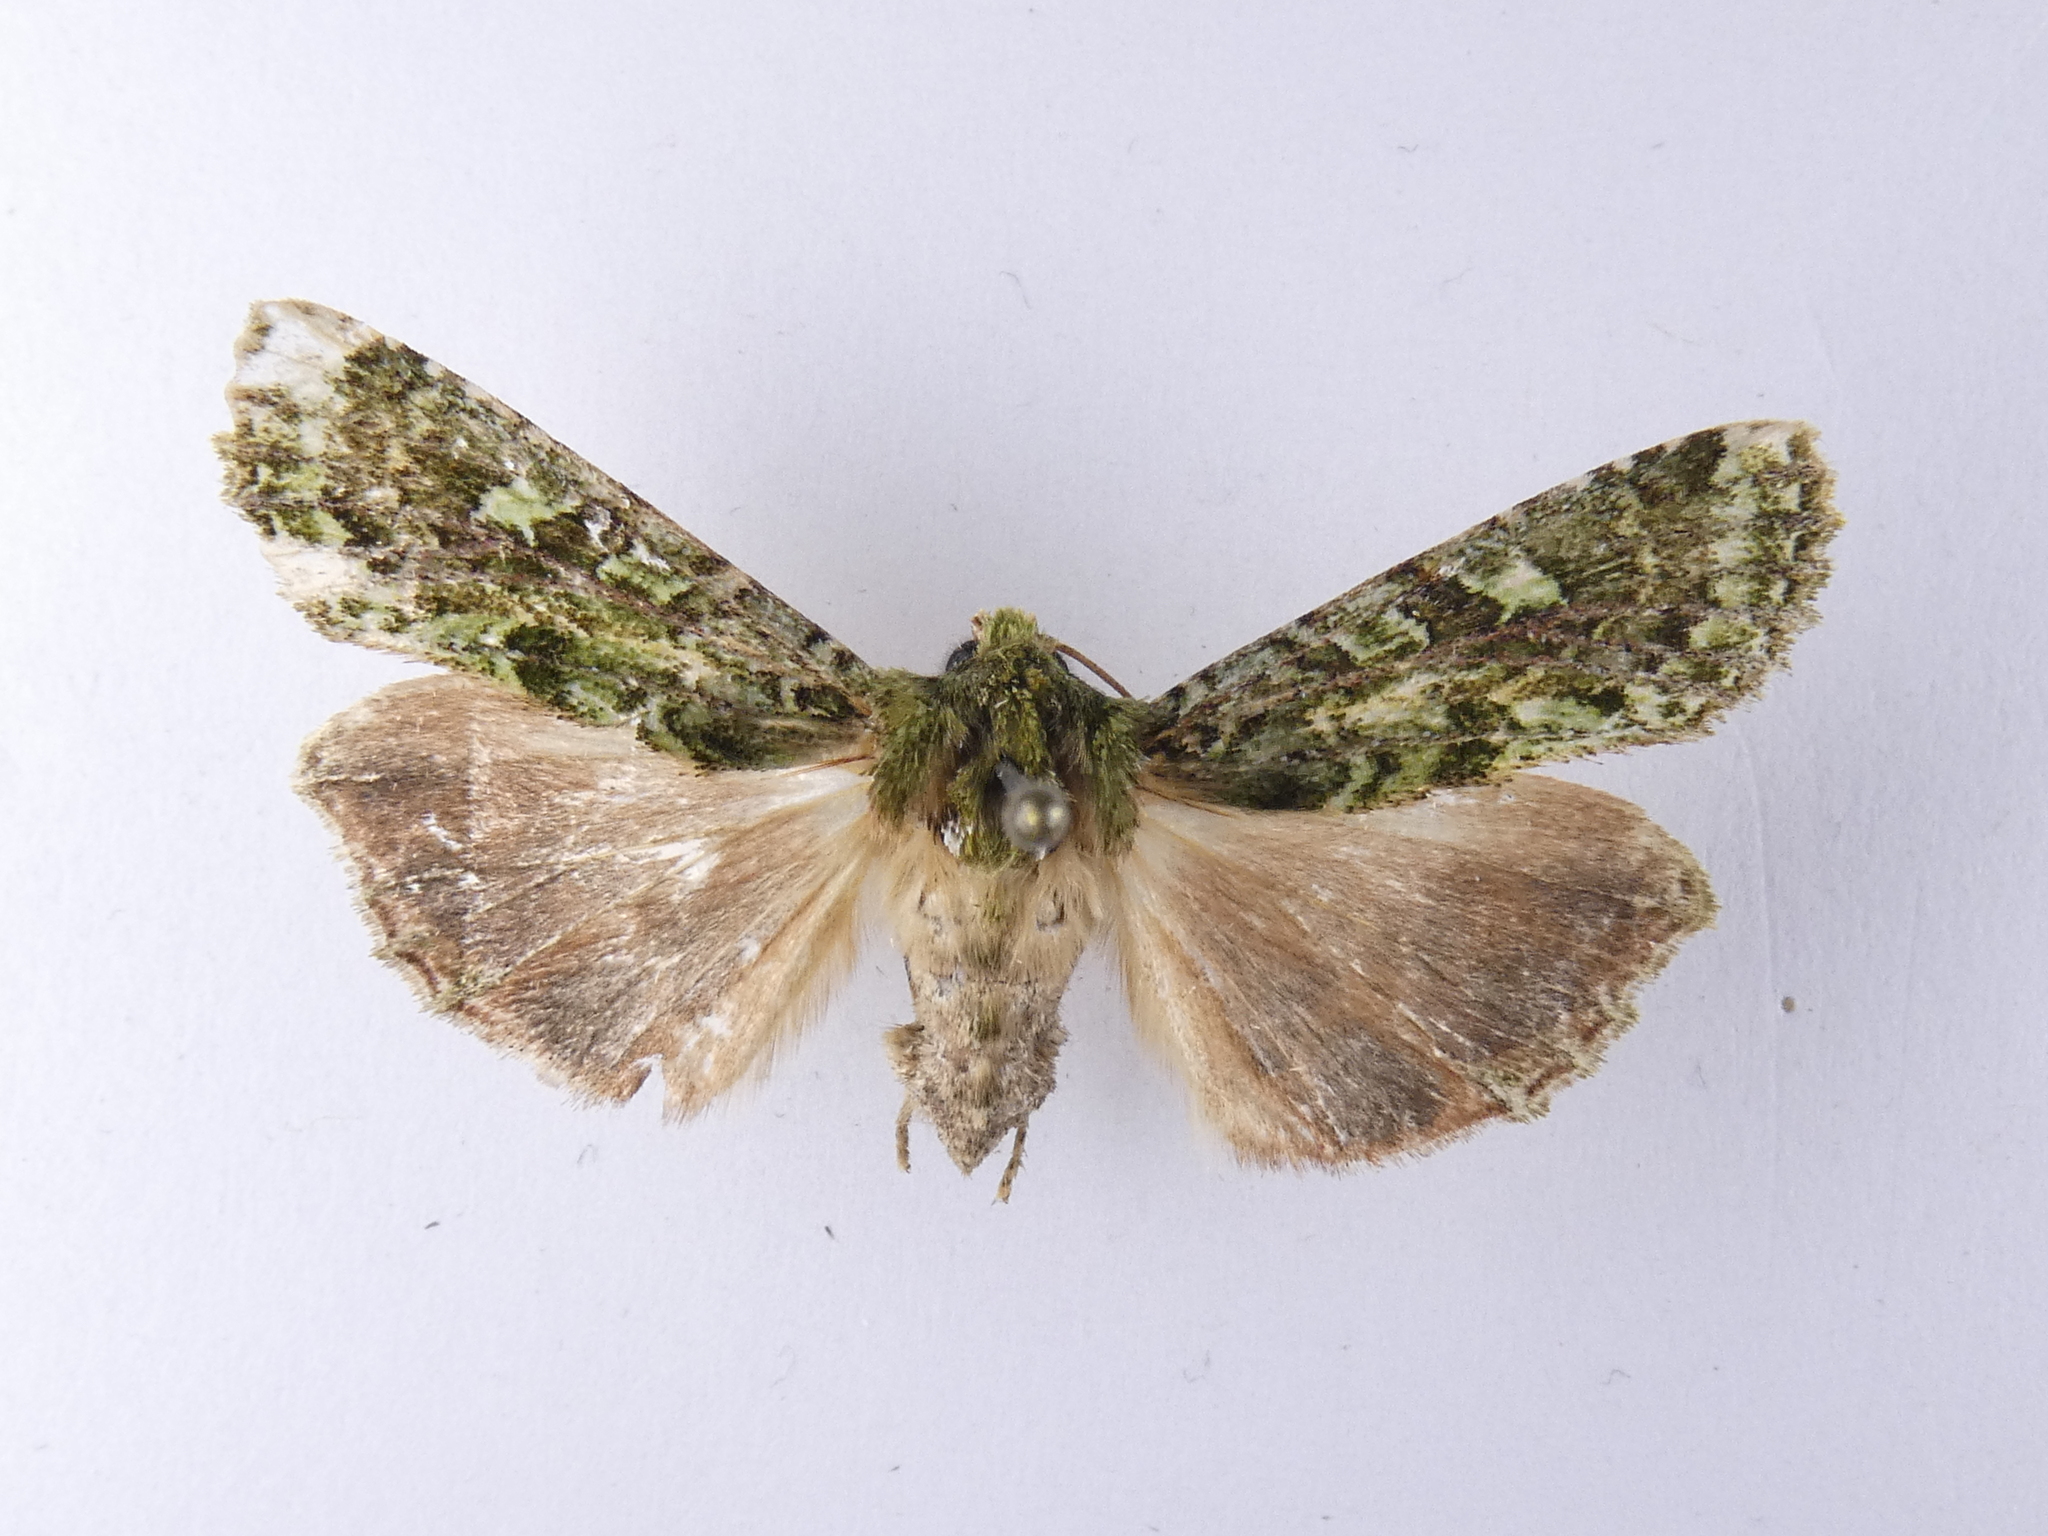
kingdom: Animalia
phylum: Arthropoda
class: Insecta
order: Lepidoptera
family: Noctuidae
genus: Feredayia
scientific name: Feredayia grammosa
